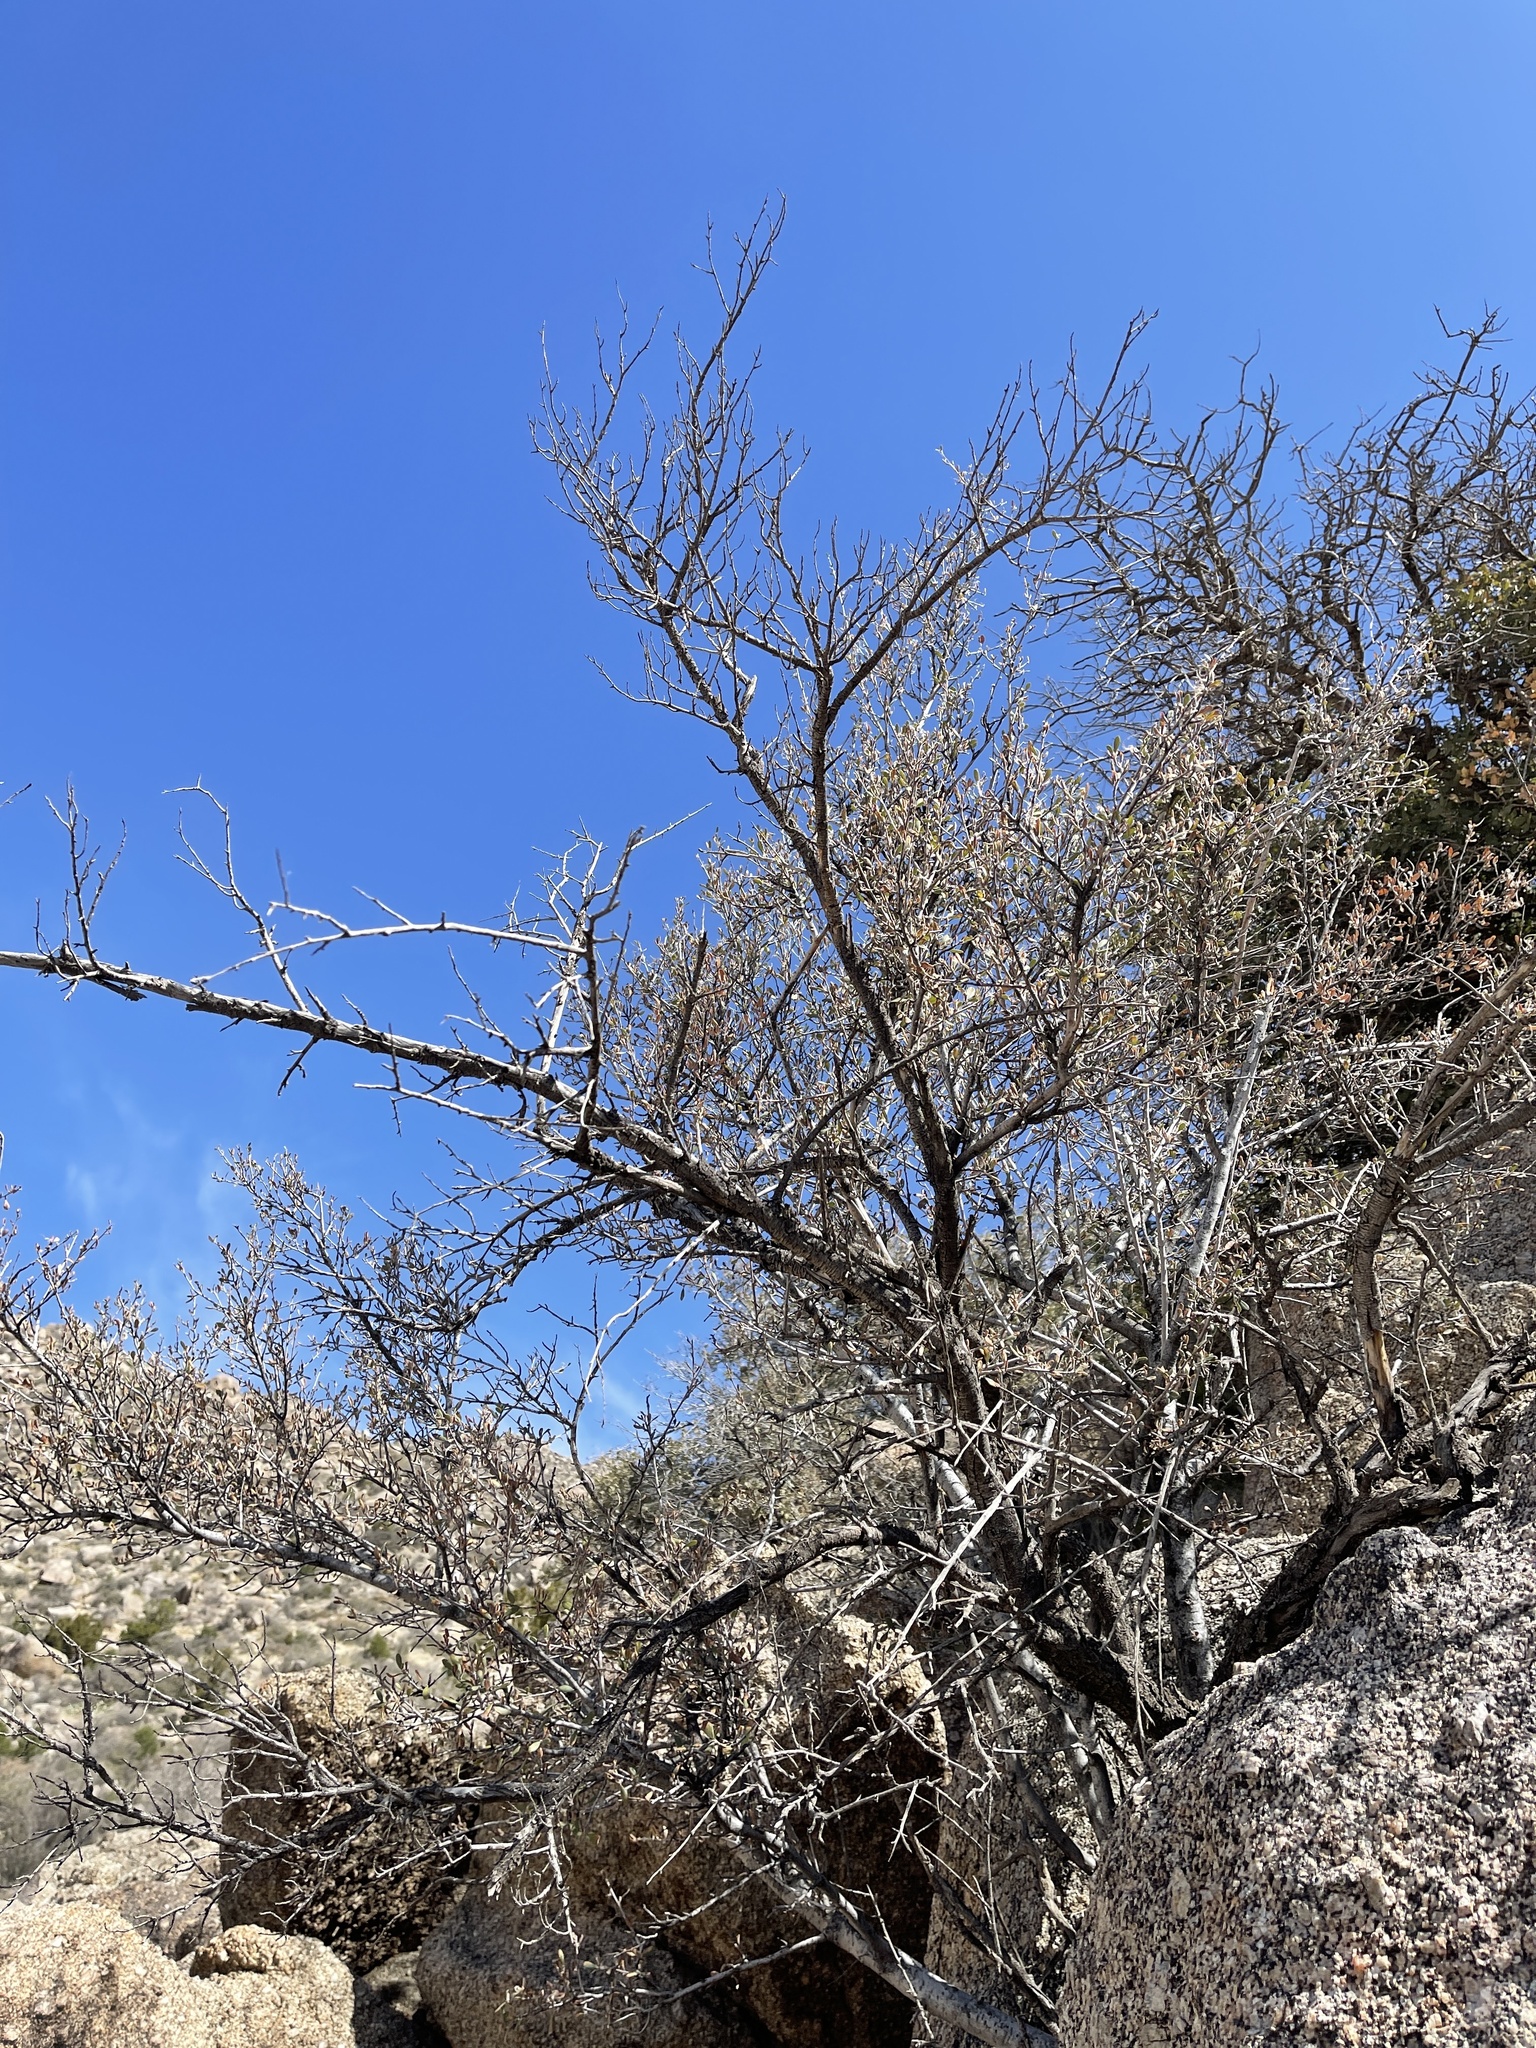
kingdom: Plantae
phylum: Tracheophyta
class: Magnoliopsida
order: Rosales
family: Rosaceae
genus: Cercocarpus
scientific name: Cercocarpus breviflorus
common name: Wright's mountain-mahogany
